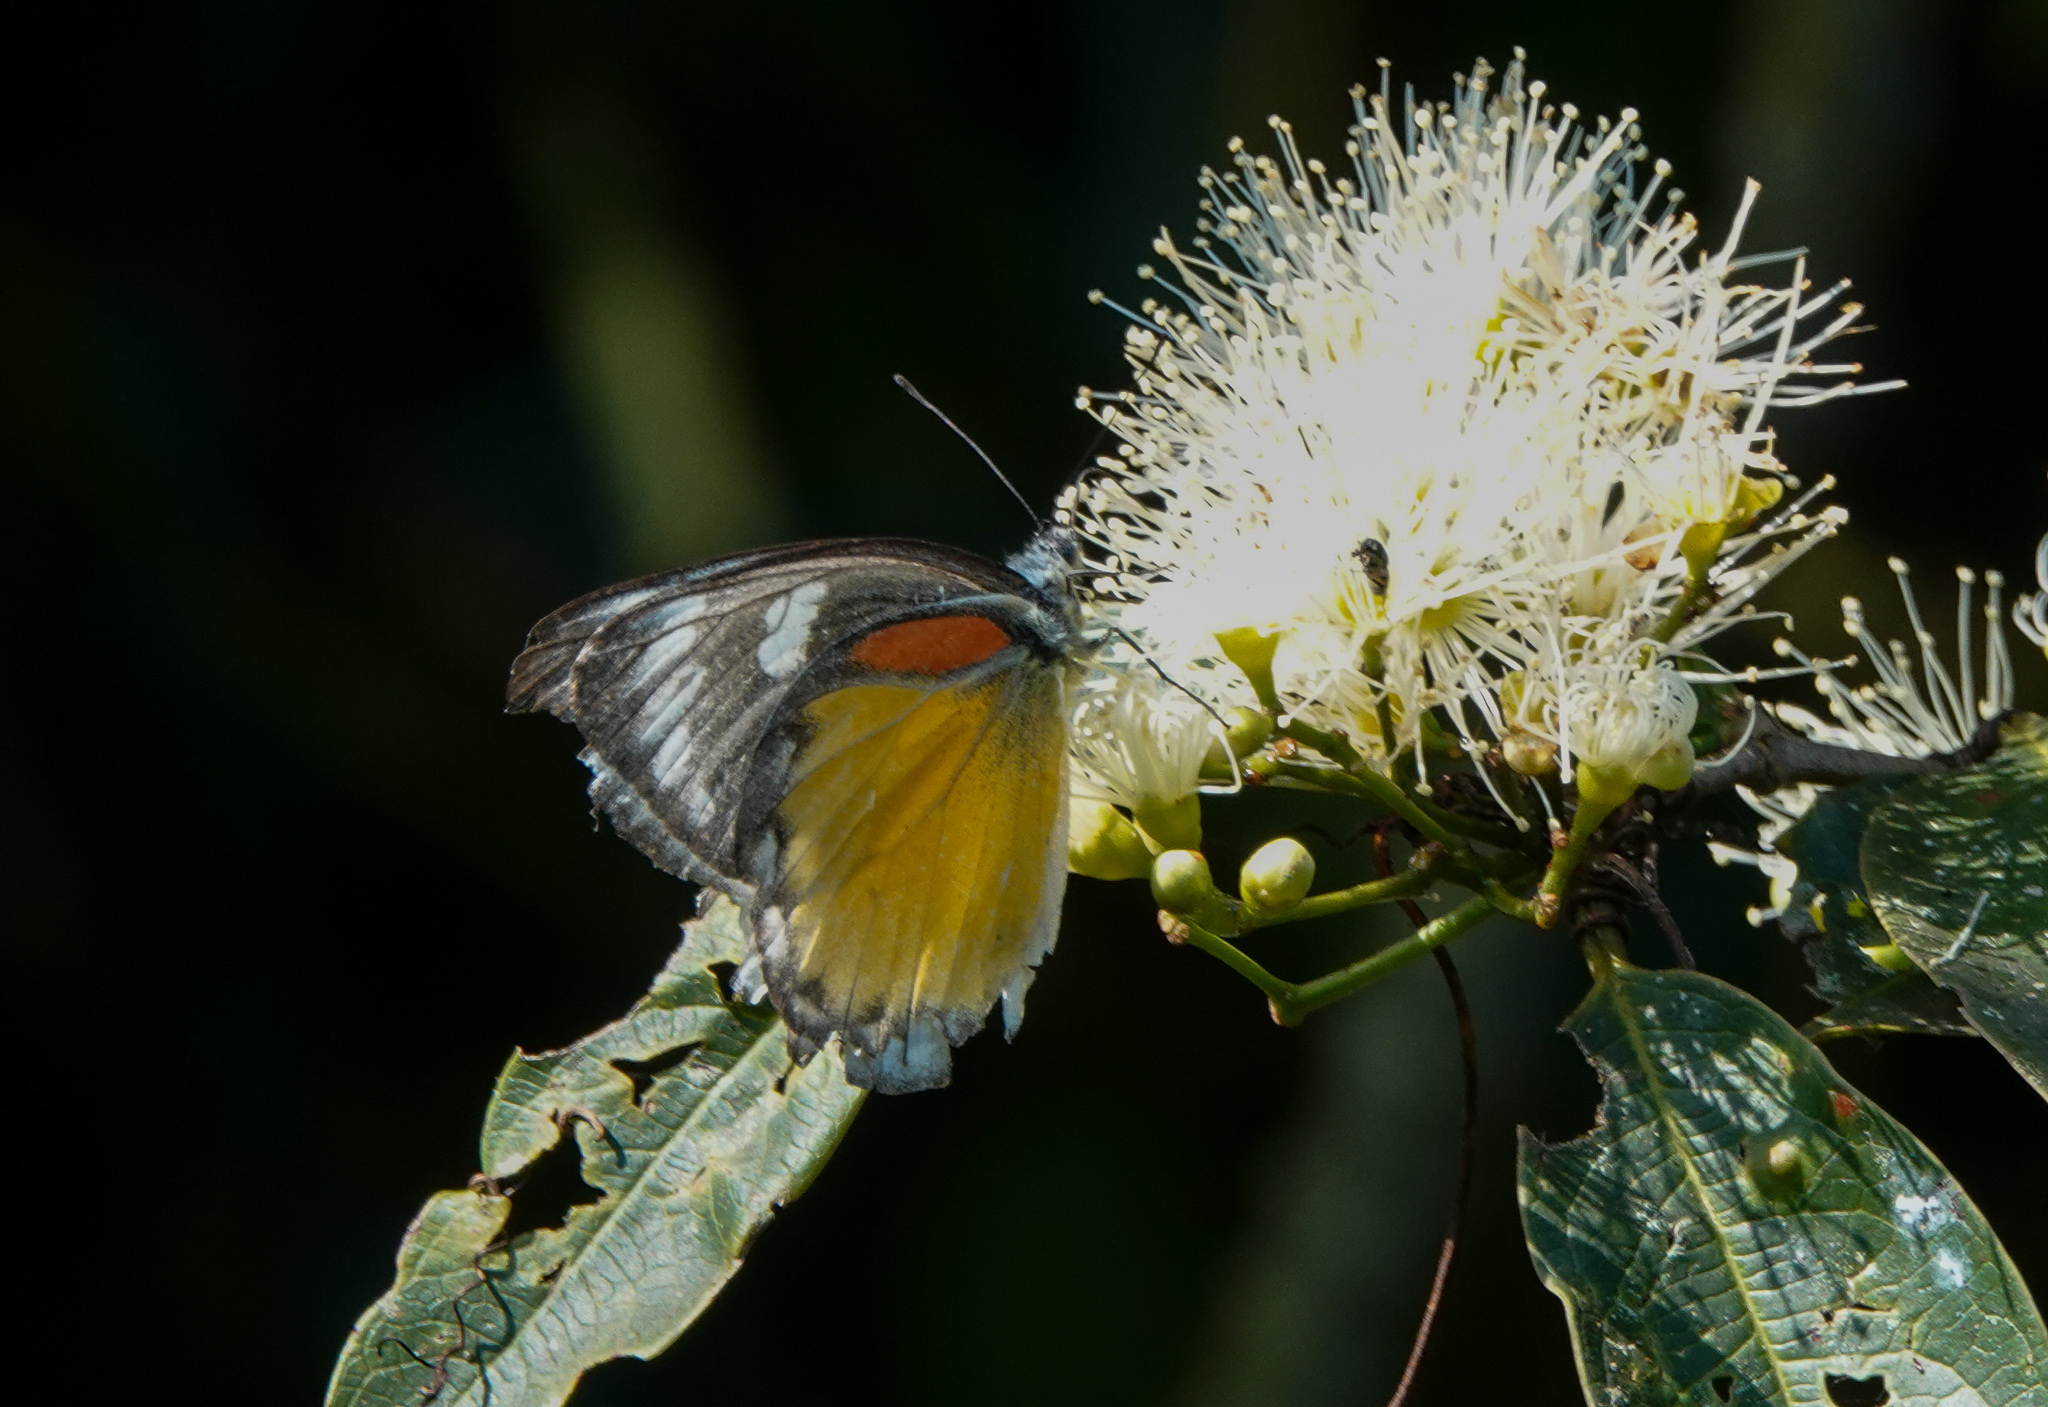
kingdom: Animalia
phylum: Arthropoda
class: Insecta
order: Lepidoptera
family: Pieridae
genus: Delias
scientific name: Delias descombesi
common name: Red-spot jezebel
